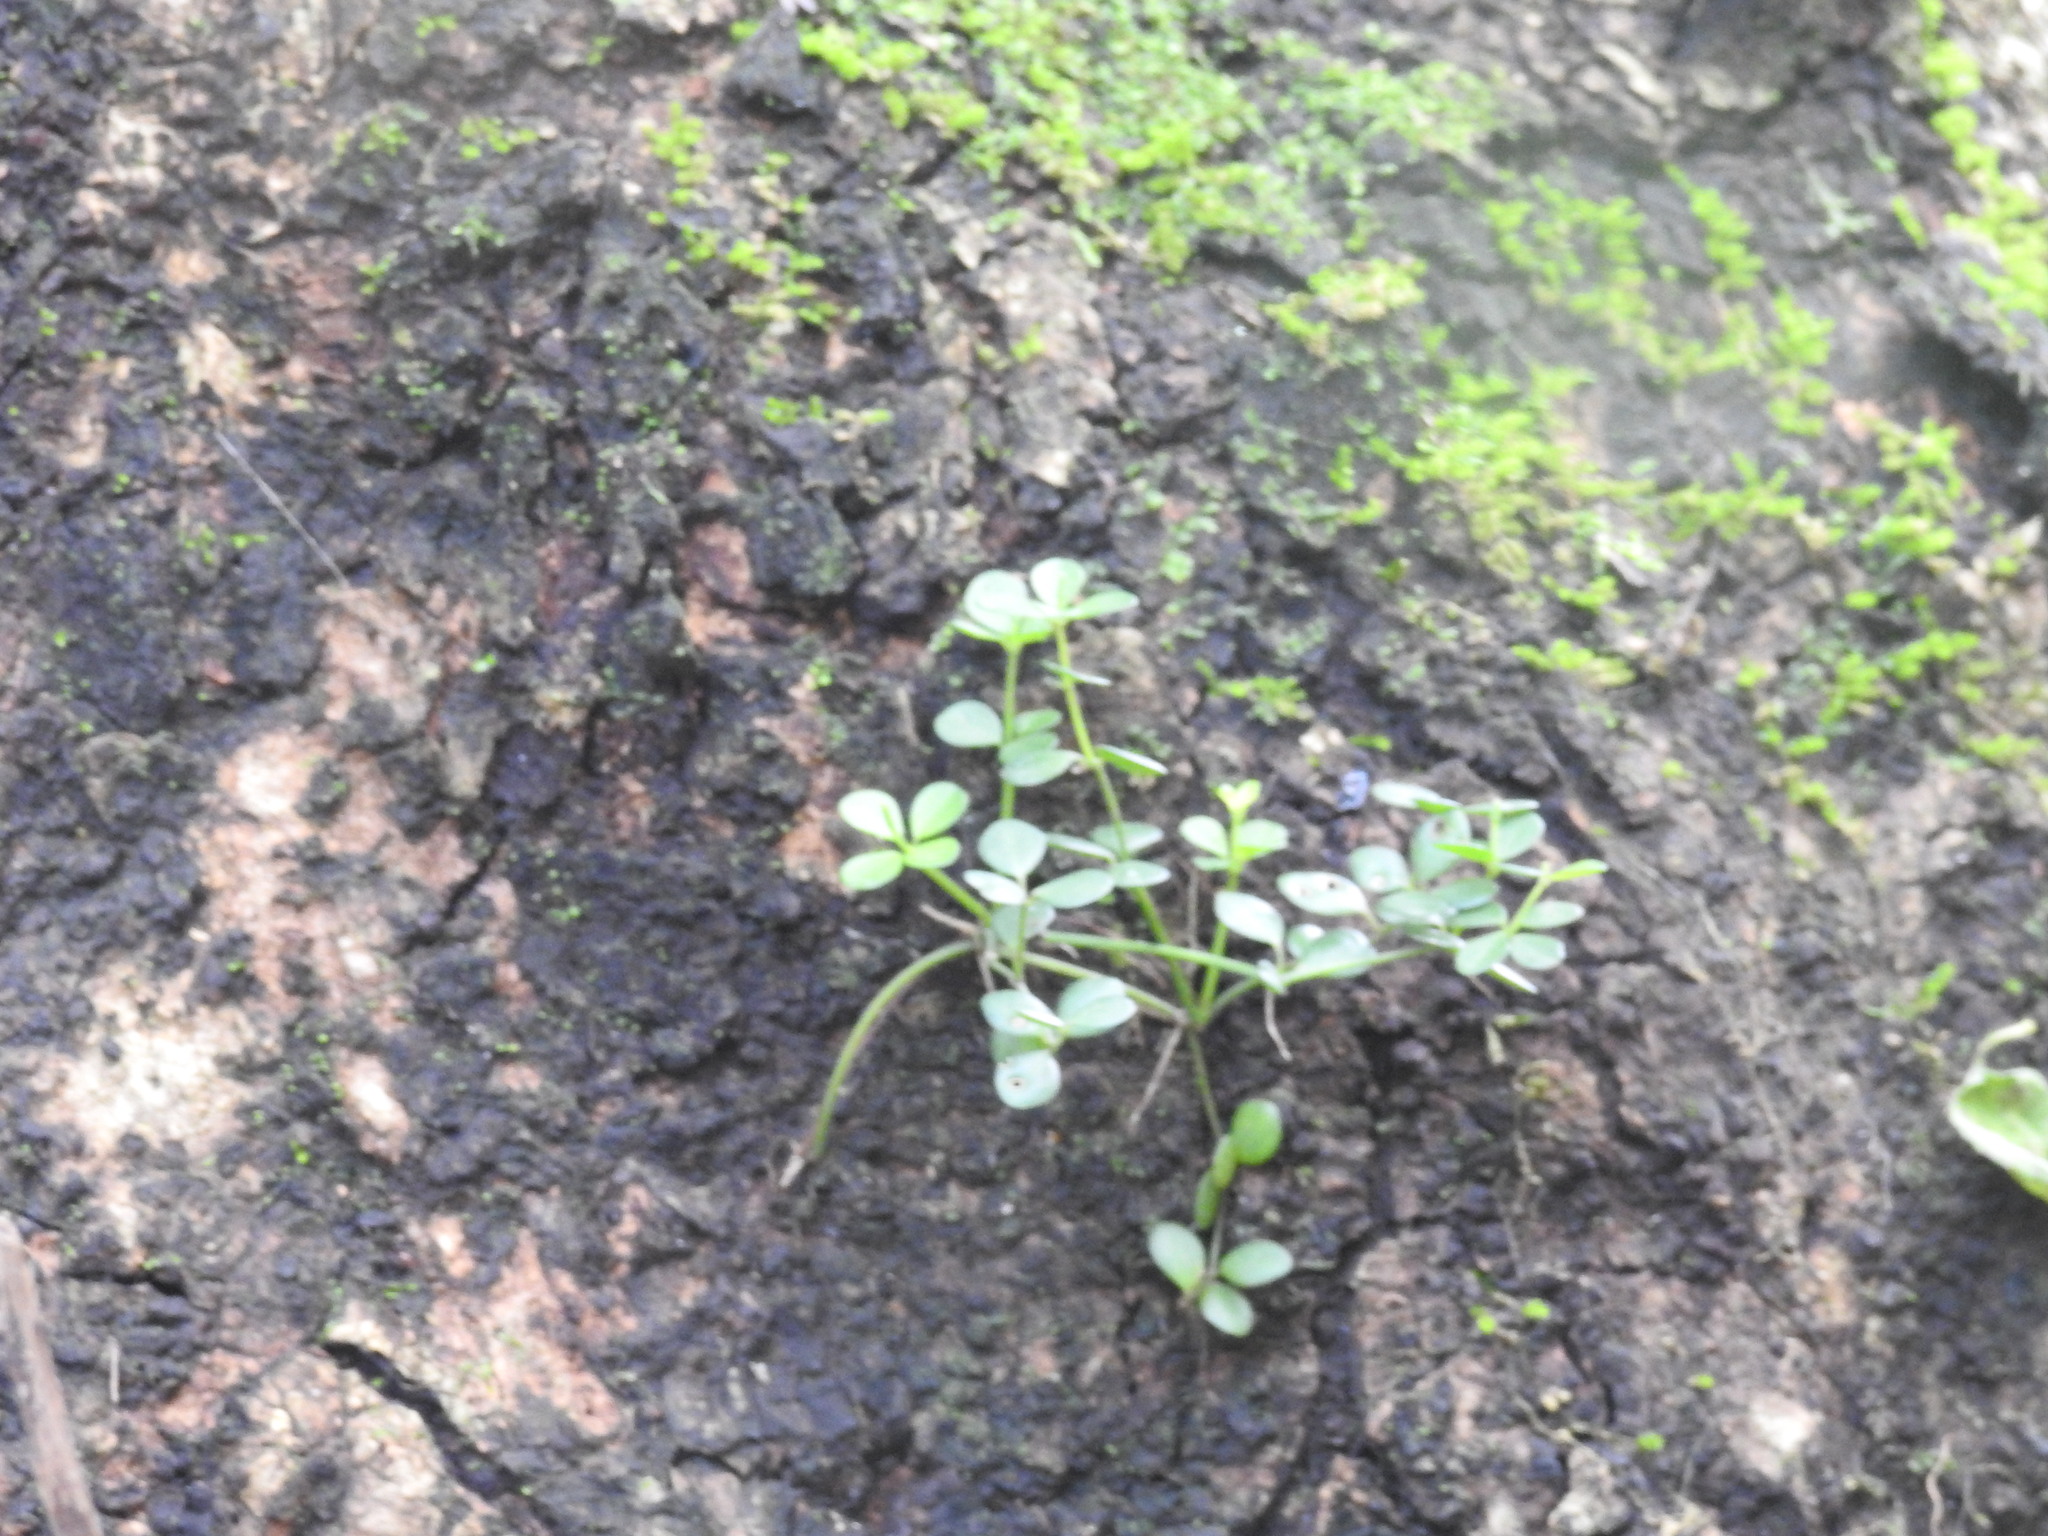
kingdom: Plantae
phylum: Tracheophyta
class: Magnoliopsida
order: Piperales
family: Piperaceae
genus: Peperomia
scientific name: Peperomia tetraphylla
